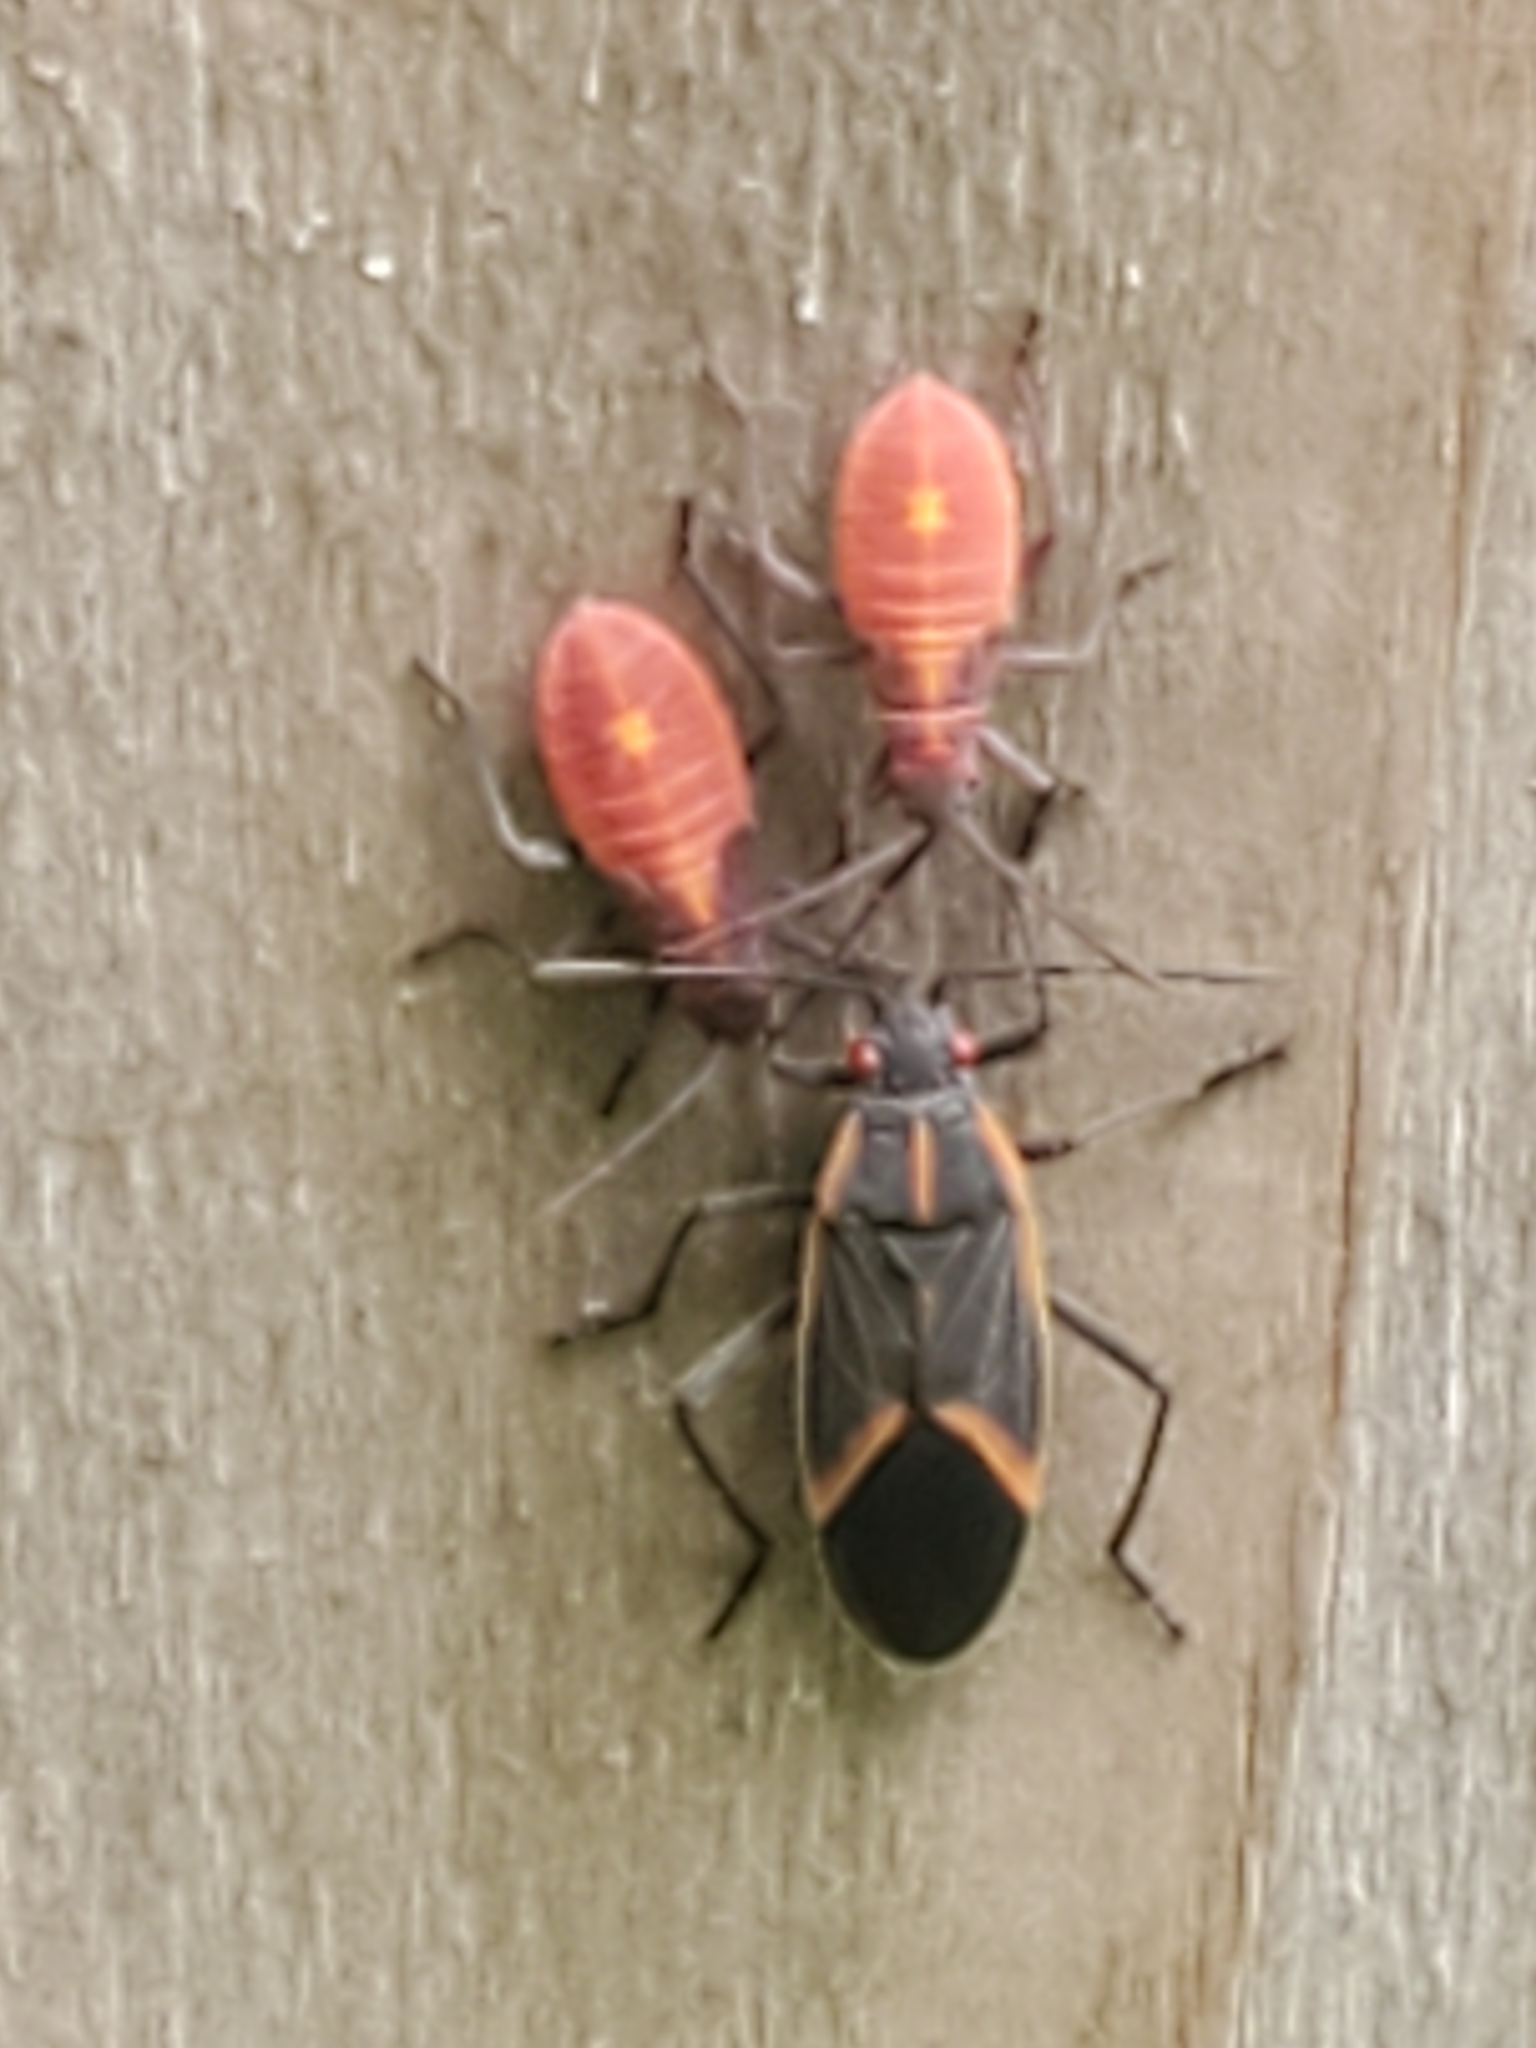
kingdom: Animalia
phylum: Arthropoda
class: Insecta
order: Hemiptera
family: Rhopalidae
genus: Boisea
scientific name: Boisea trivittata
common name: Boxelder bug
